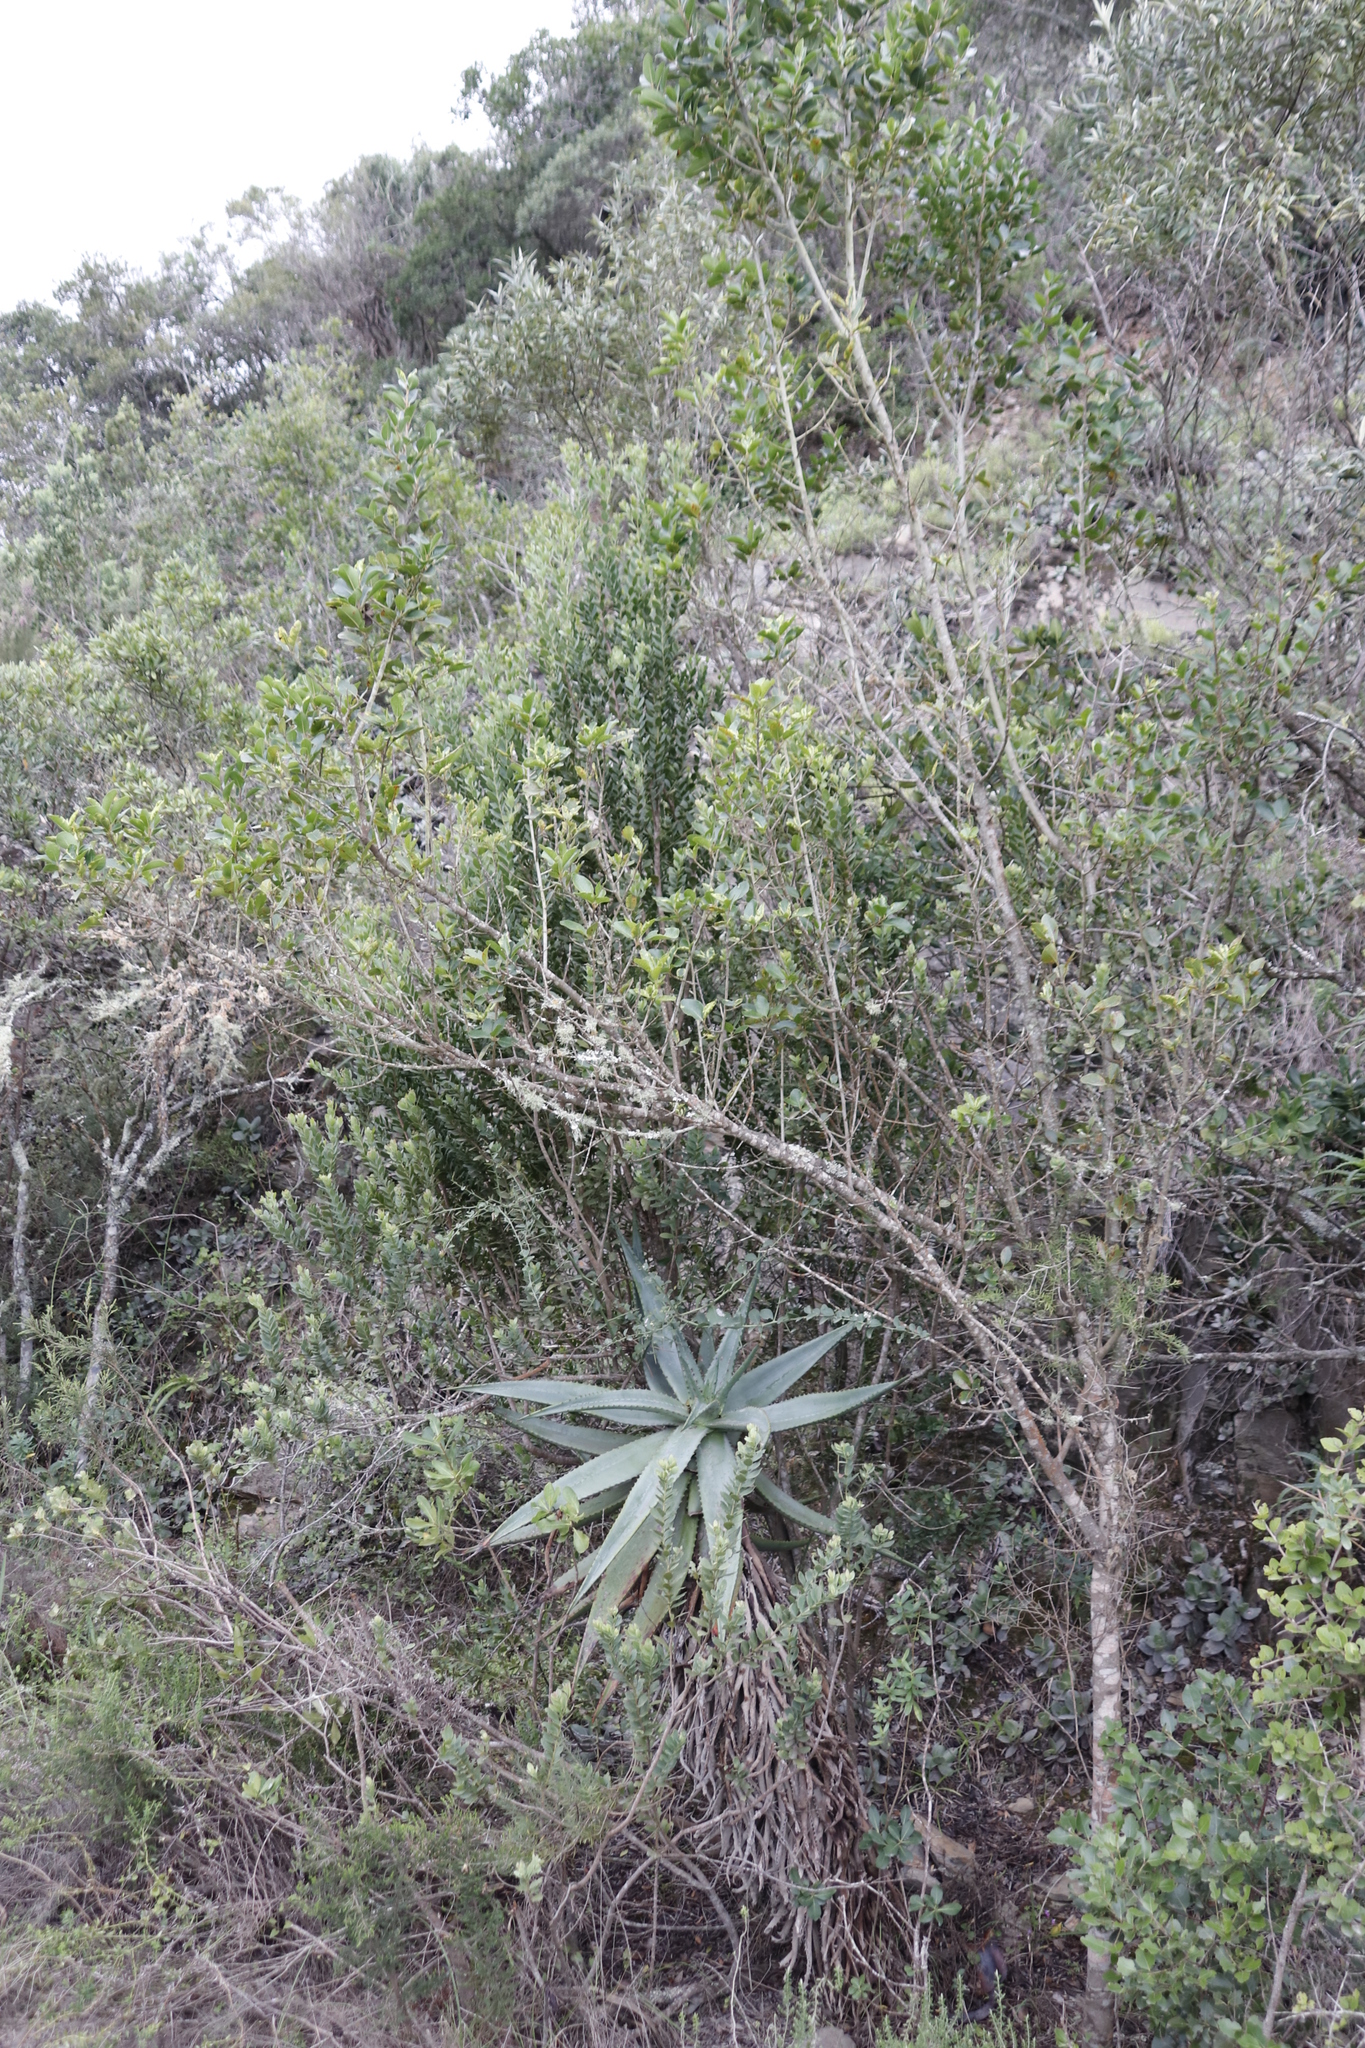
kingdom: Plantae
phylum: Tracheophyta
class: Liliopsida
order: Asparagales
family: Asphodelaceae
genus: Aloe
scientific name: Aloe ferox
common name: Bitter aloe
